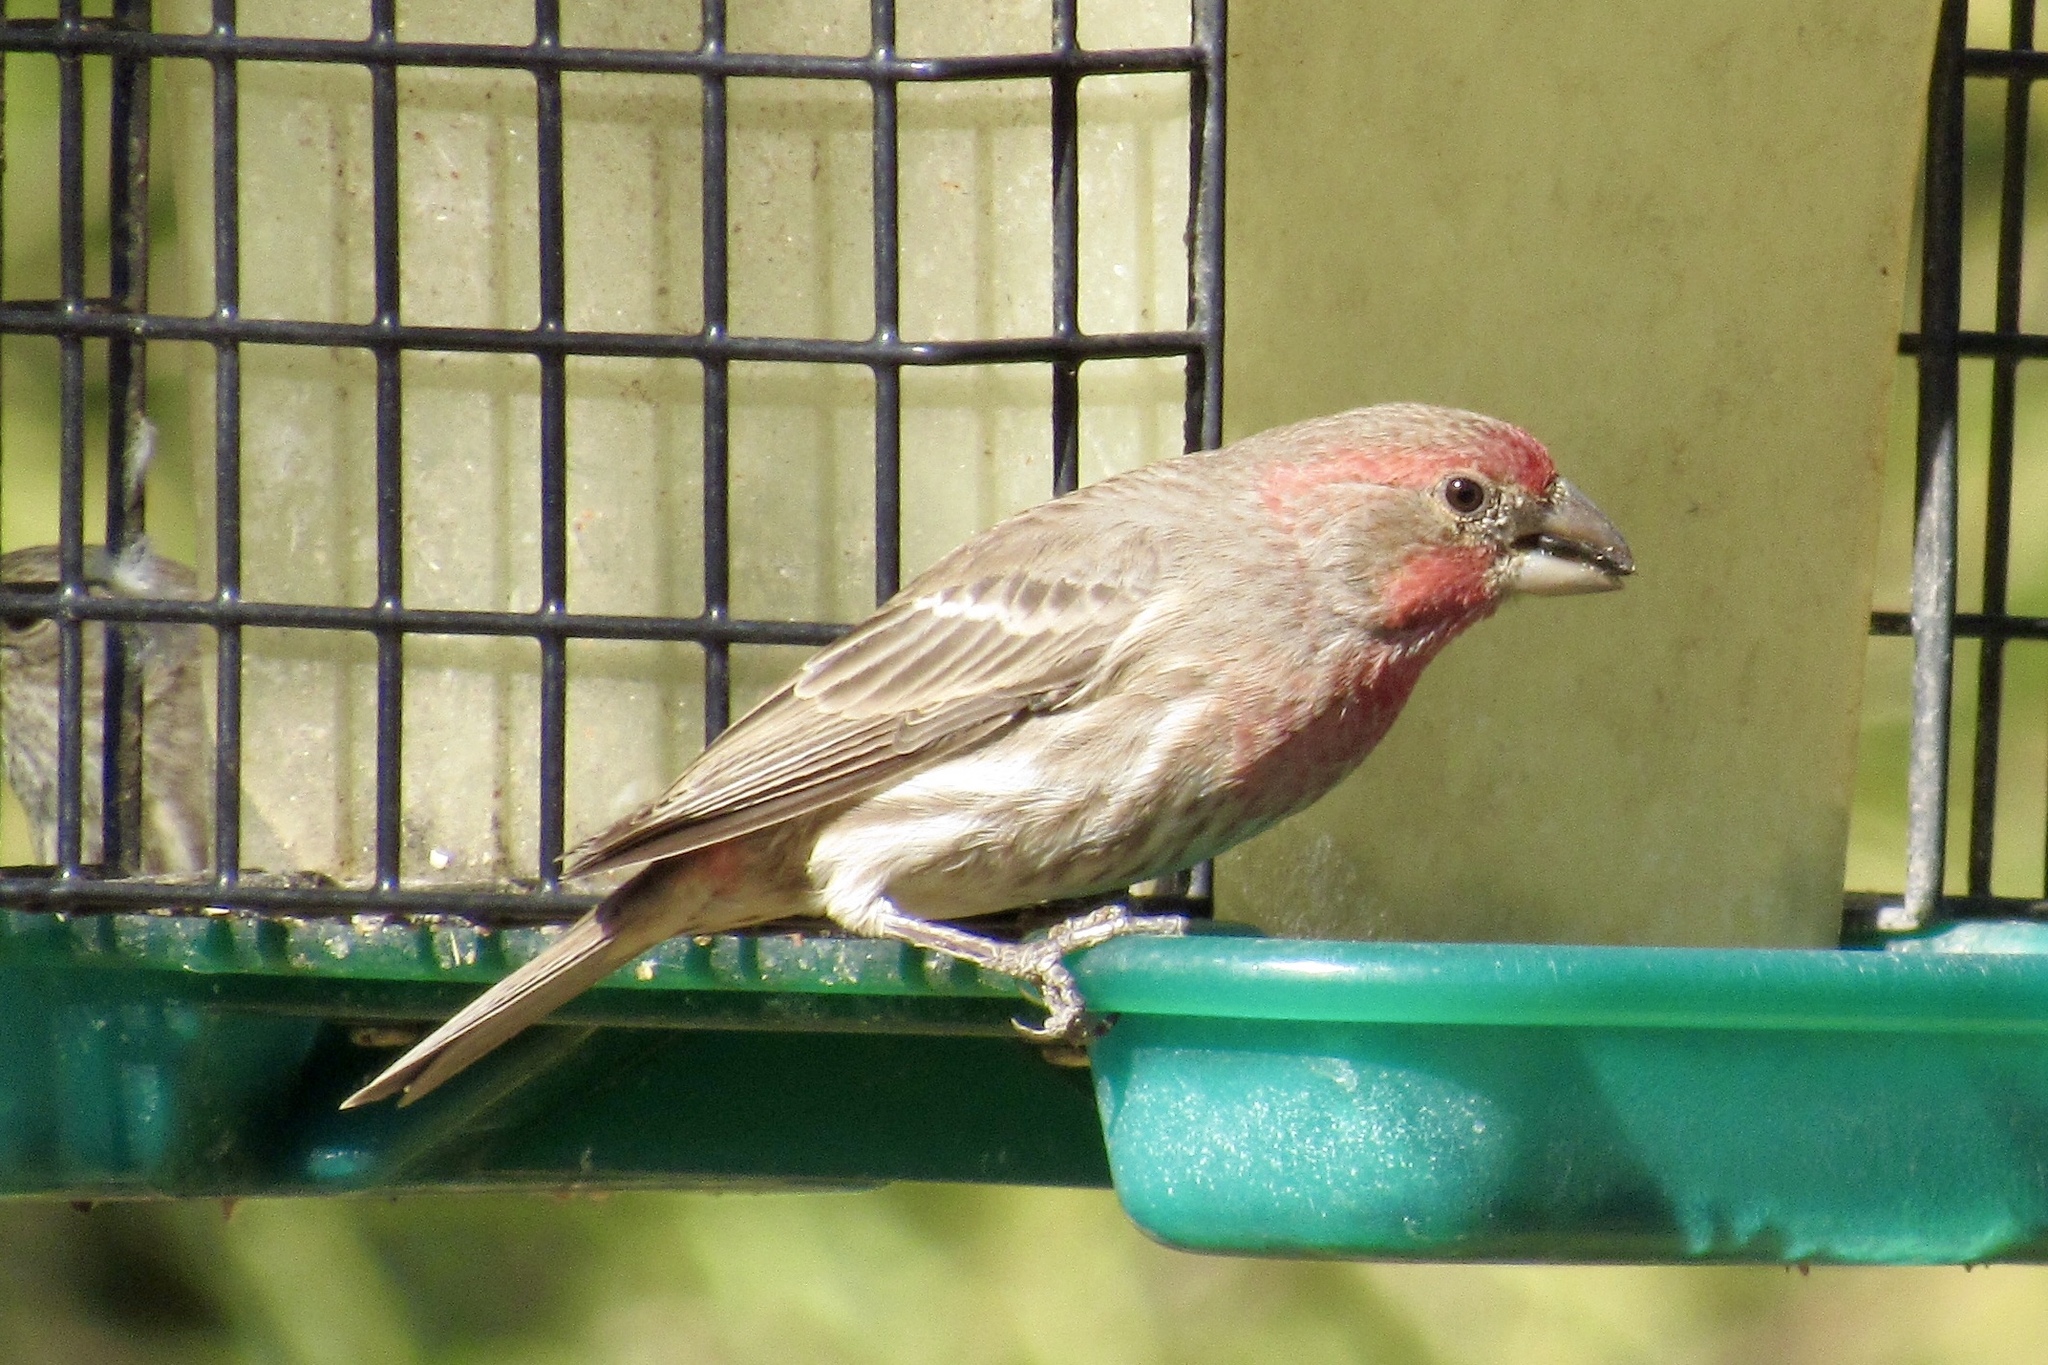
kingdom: Animalia
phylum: Chordata
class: Aves
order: Passeriformes
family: Fringillidae
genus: Haemorhous
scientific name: Haemorhous mexicanus
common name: House finch
